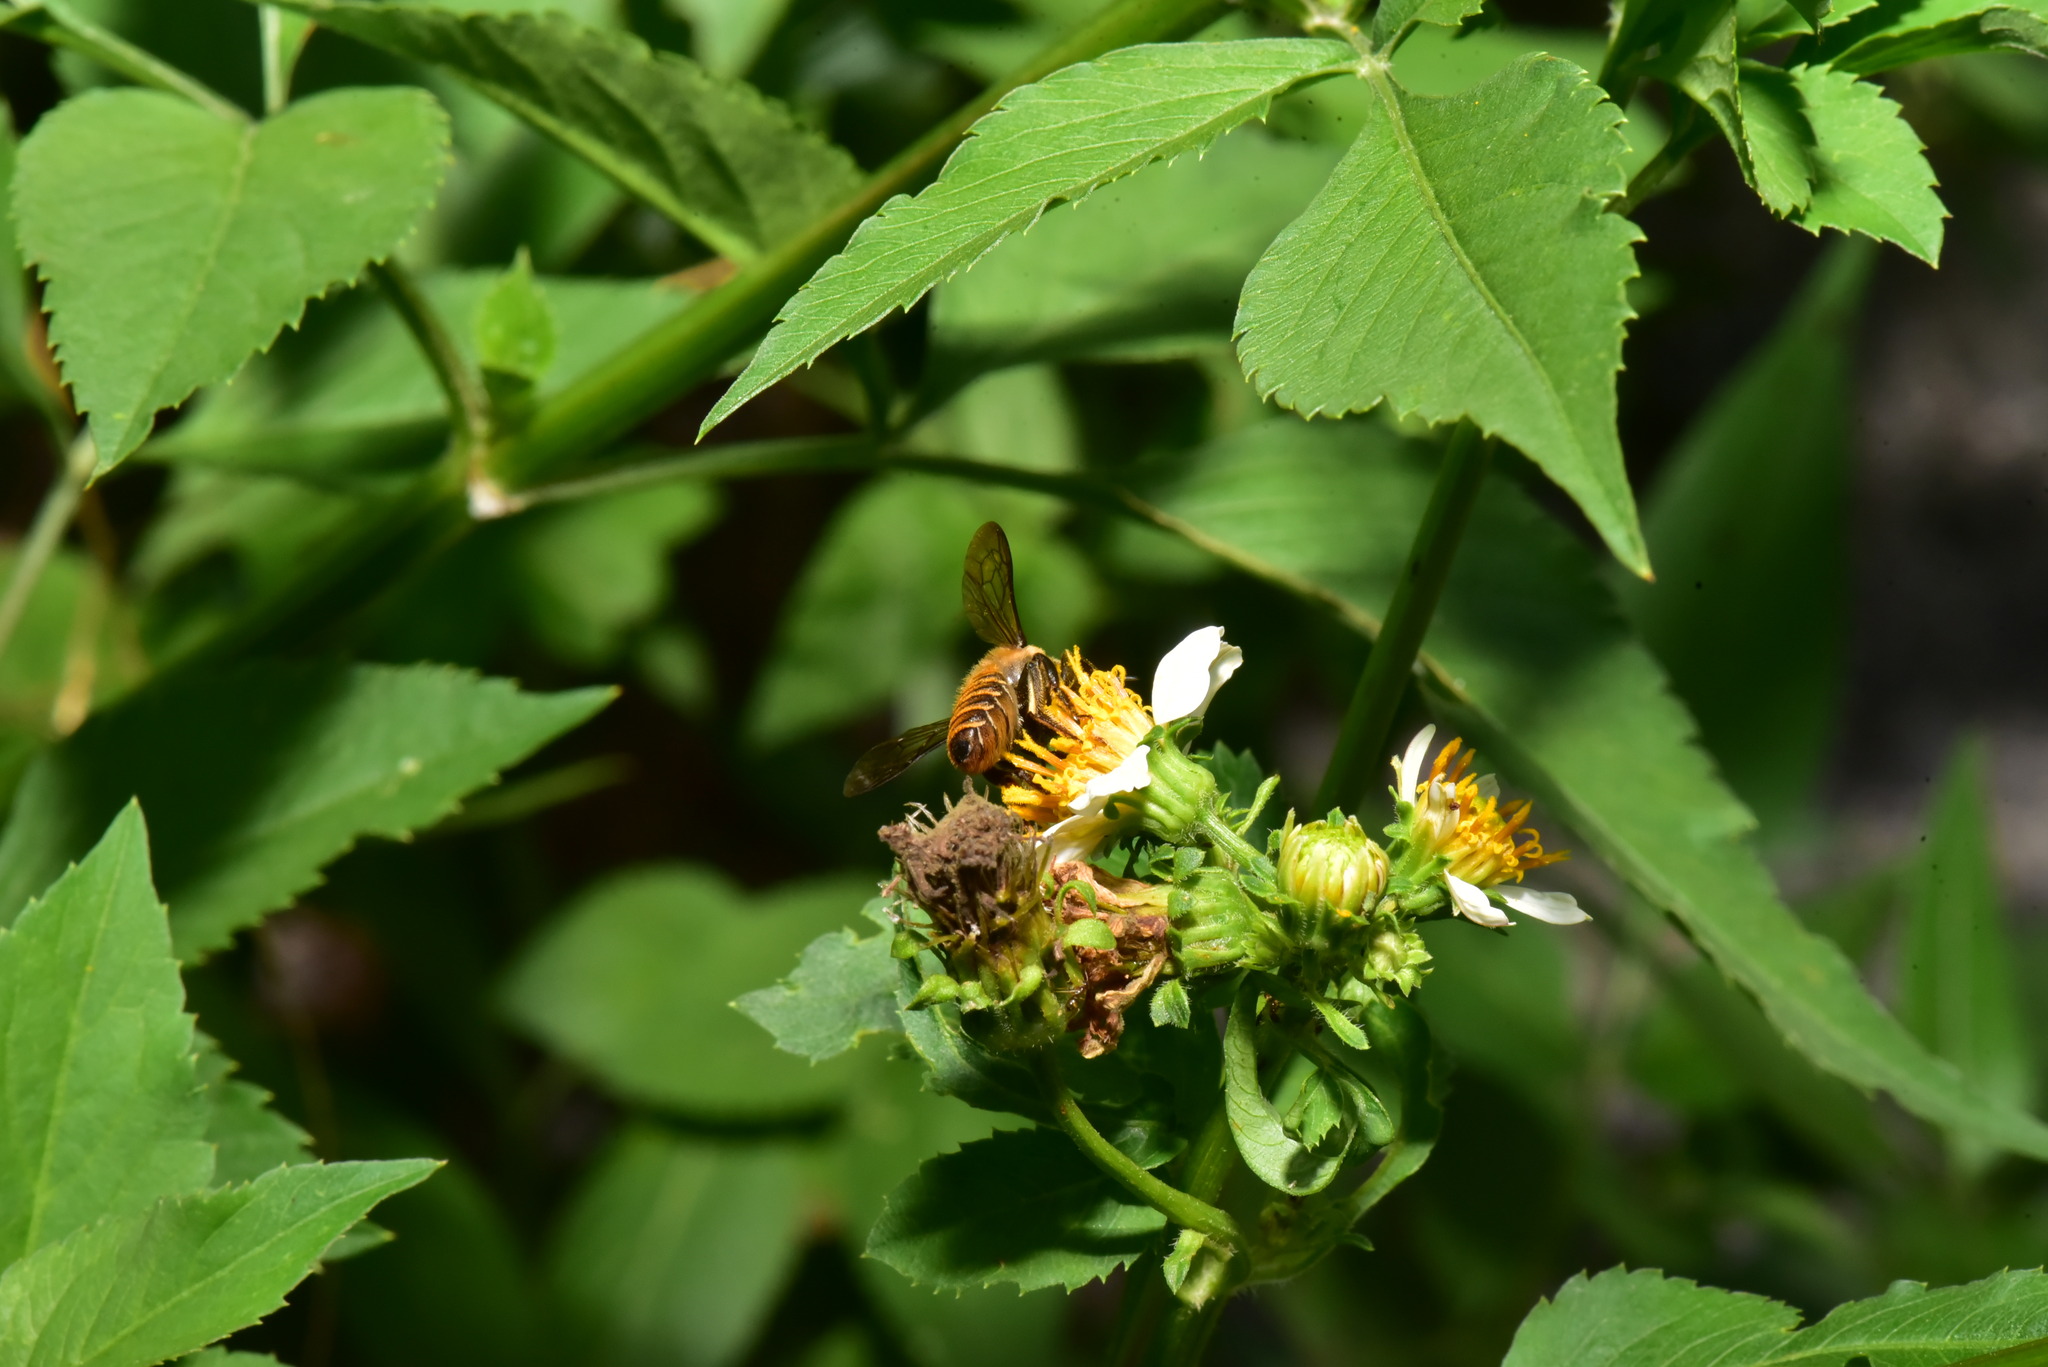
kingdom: Animalia
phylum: Arthropoda
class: Insecta
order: Hymenoptera
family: Megachilidae
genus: Megachile
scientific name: Megachile rufovittata
